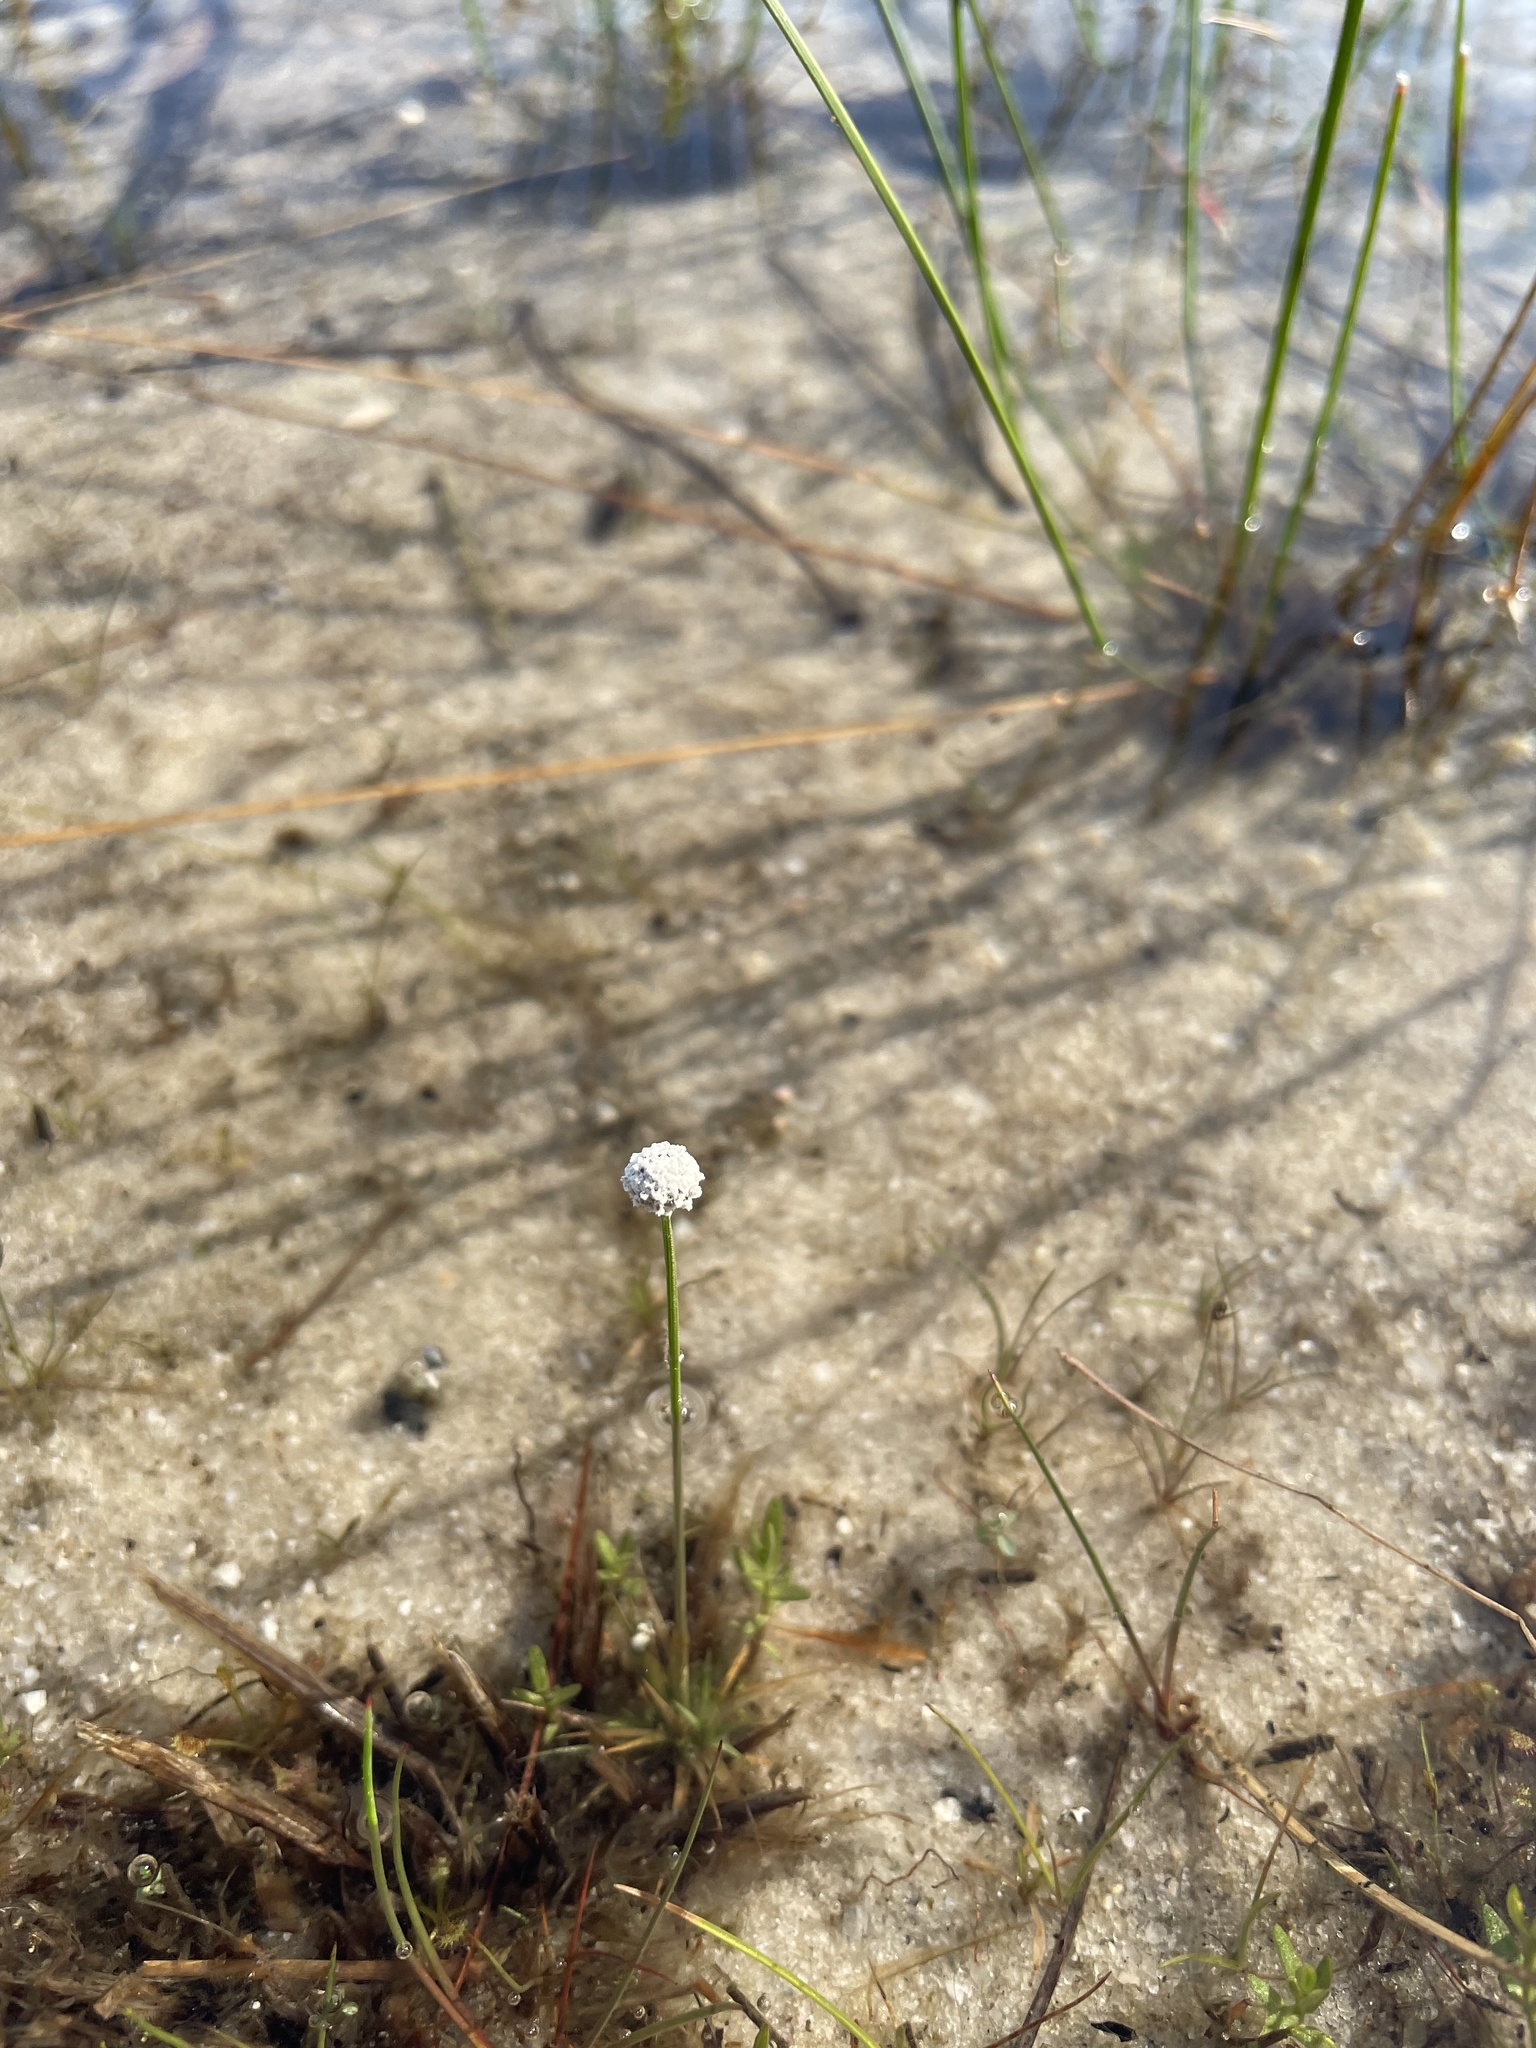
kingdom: Plantae
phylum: Tracheophyta
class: Liliopsida
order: Poales
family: Eriocaulaceae
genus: Eriocaulon
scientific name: Eriocaulon aquaticum
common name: Pipewort
